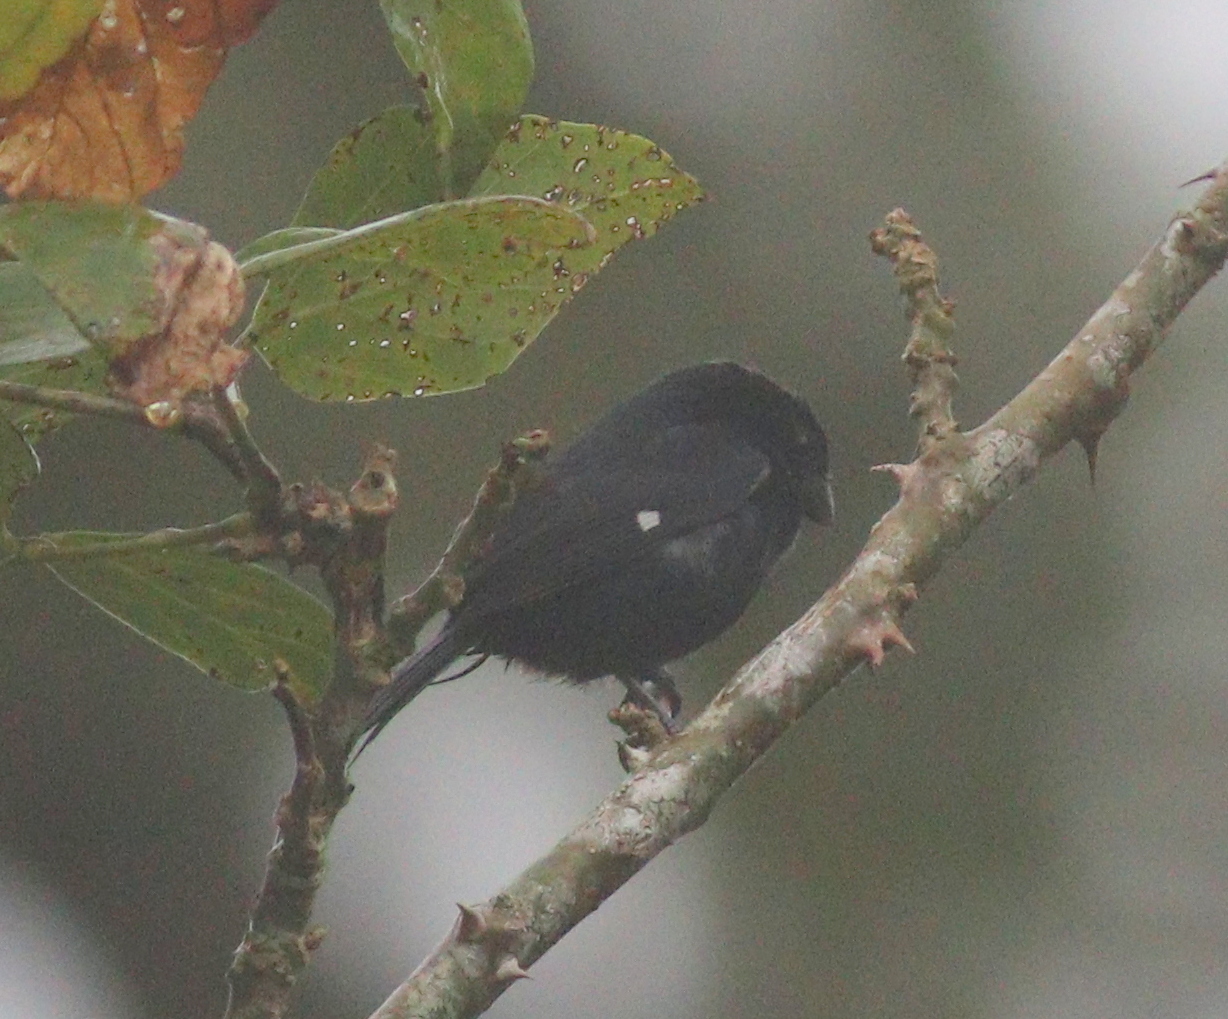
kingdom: Animalia
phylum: Chordata
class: Aves
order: Passeriformes
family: Thraupidae
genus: Sporophila
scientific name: Sporophila corvina
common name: Variable seedeater
